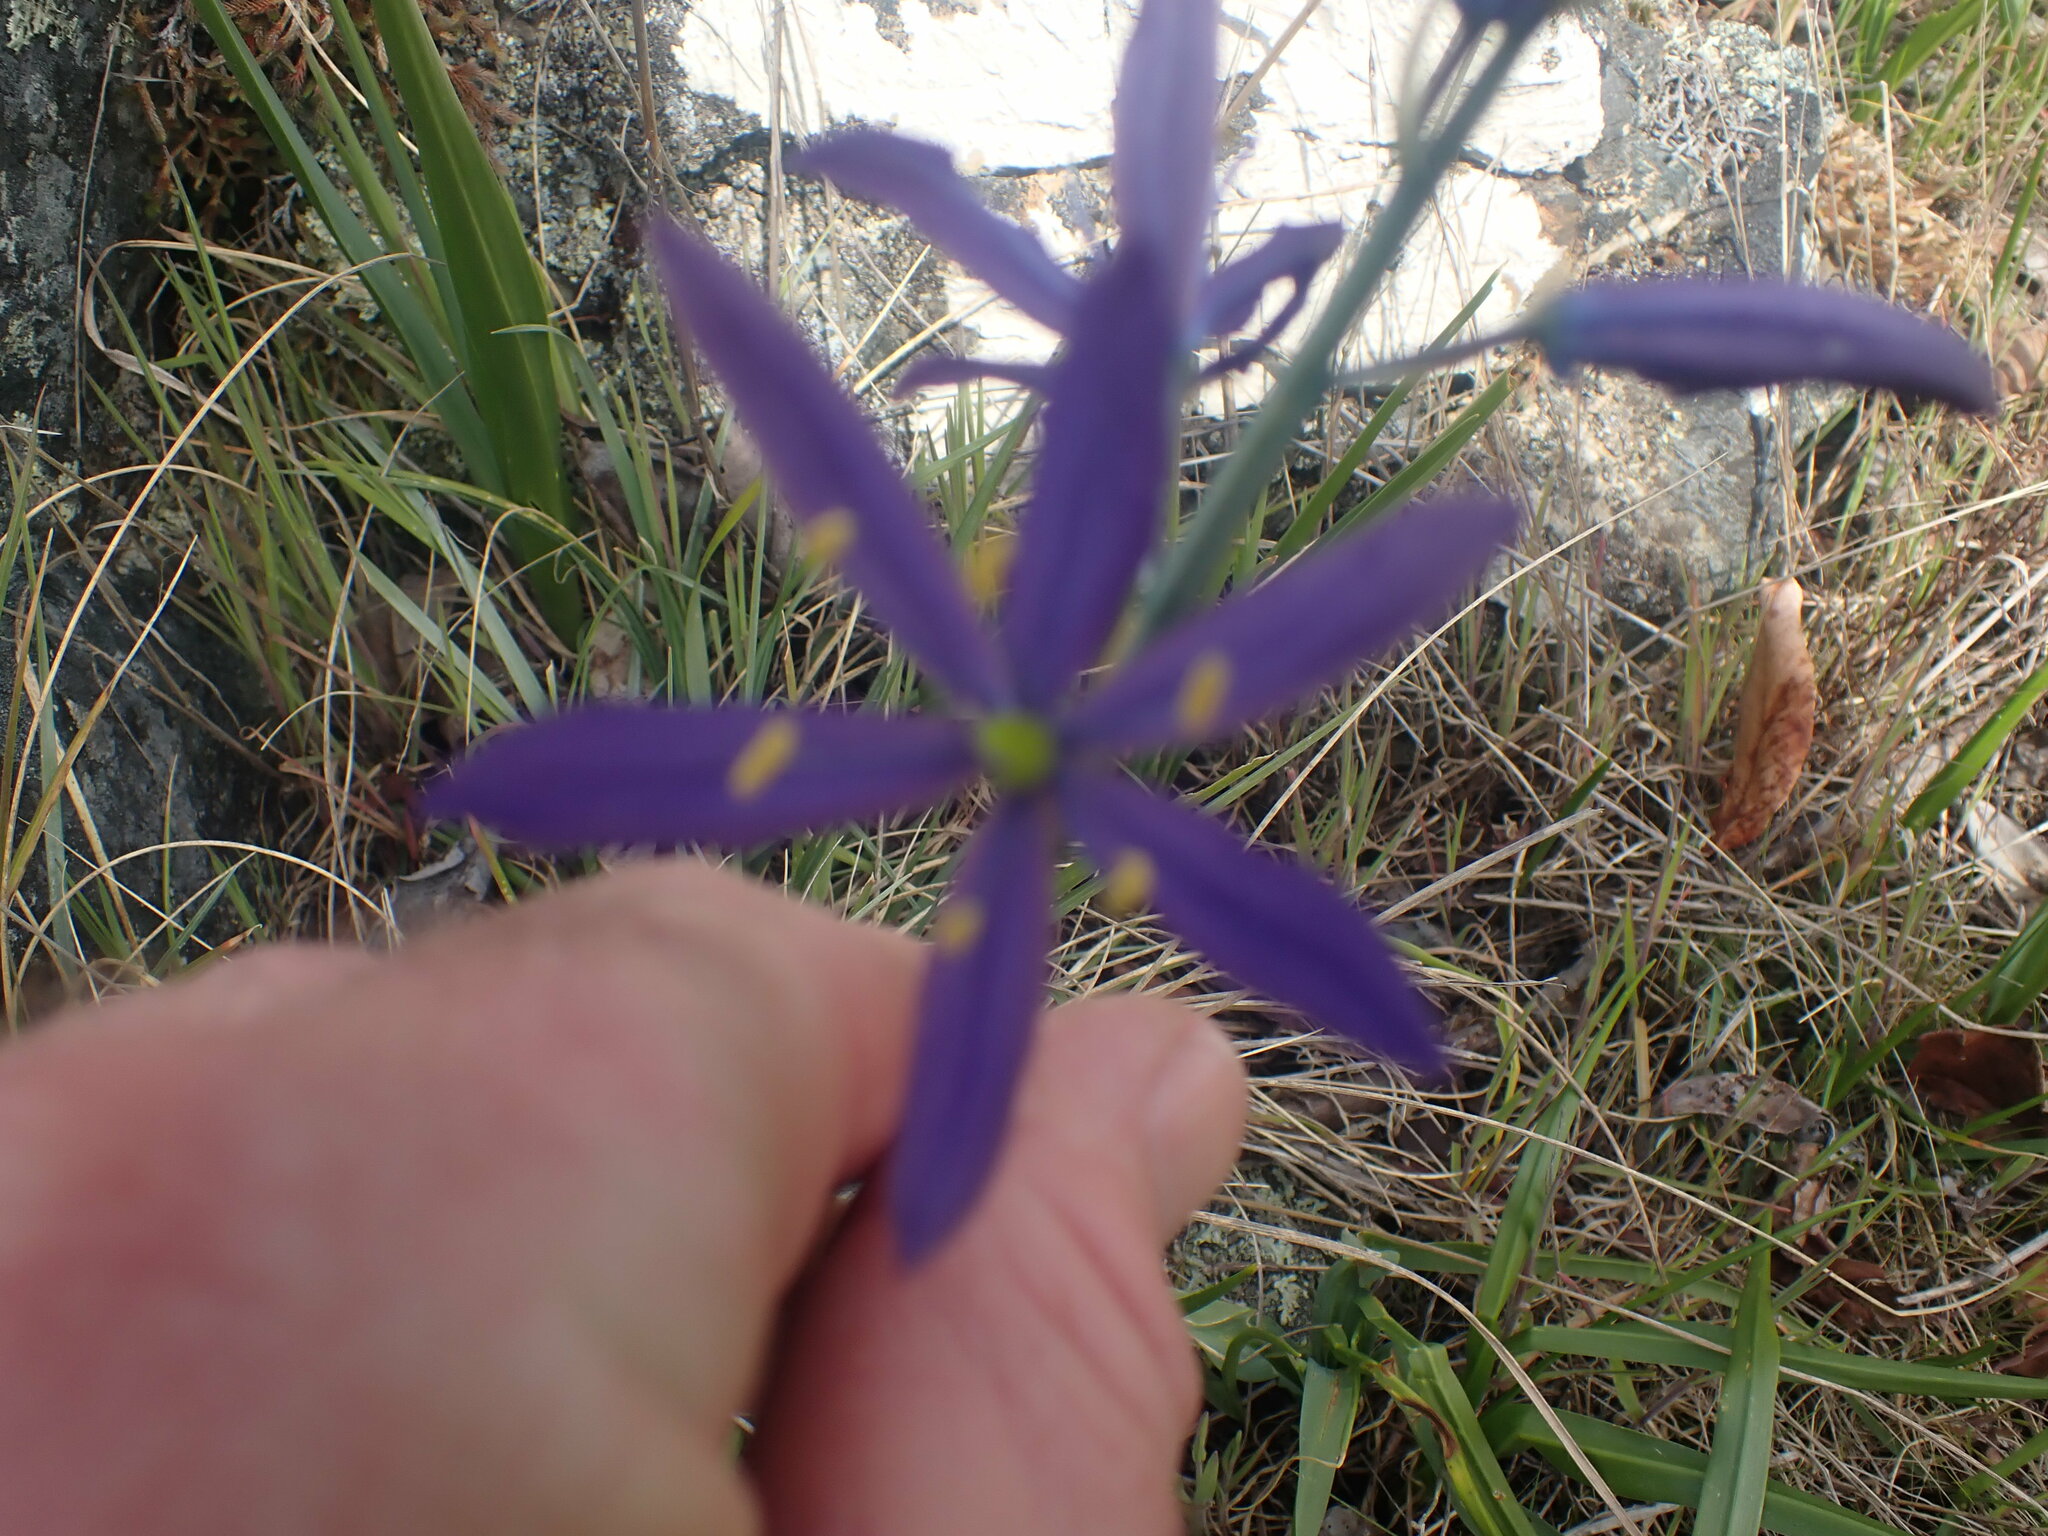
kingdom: Plantae
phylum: Tracheophyta
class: Liliopsida
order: Asparagales
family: Asparagaceae
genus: Camassia
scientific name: Camassia leichtlinii
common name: Leichtlin's camas
